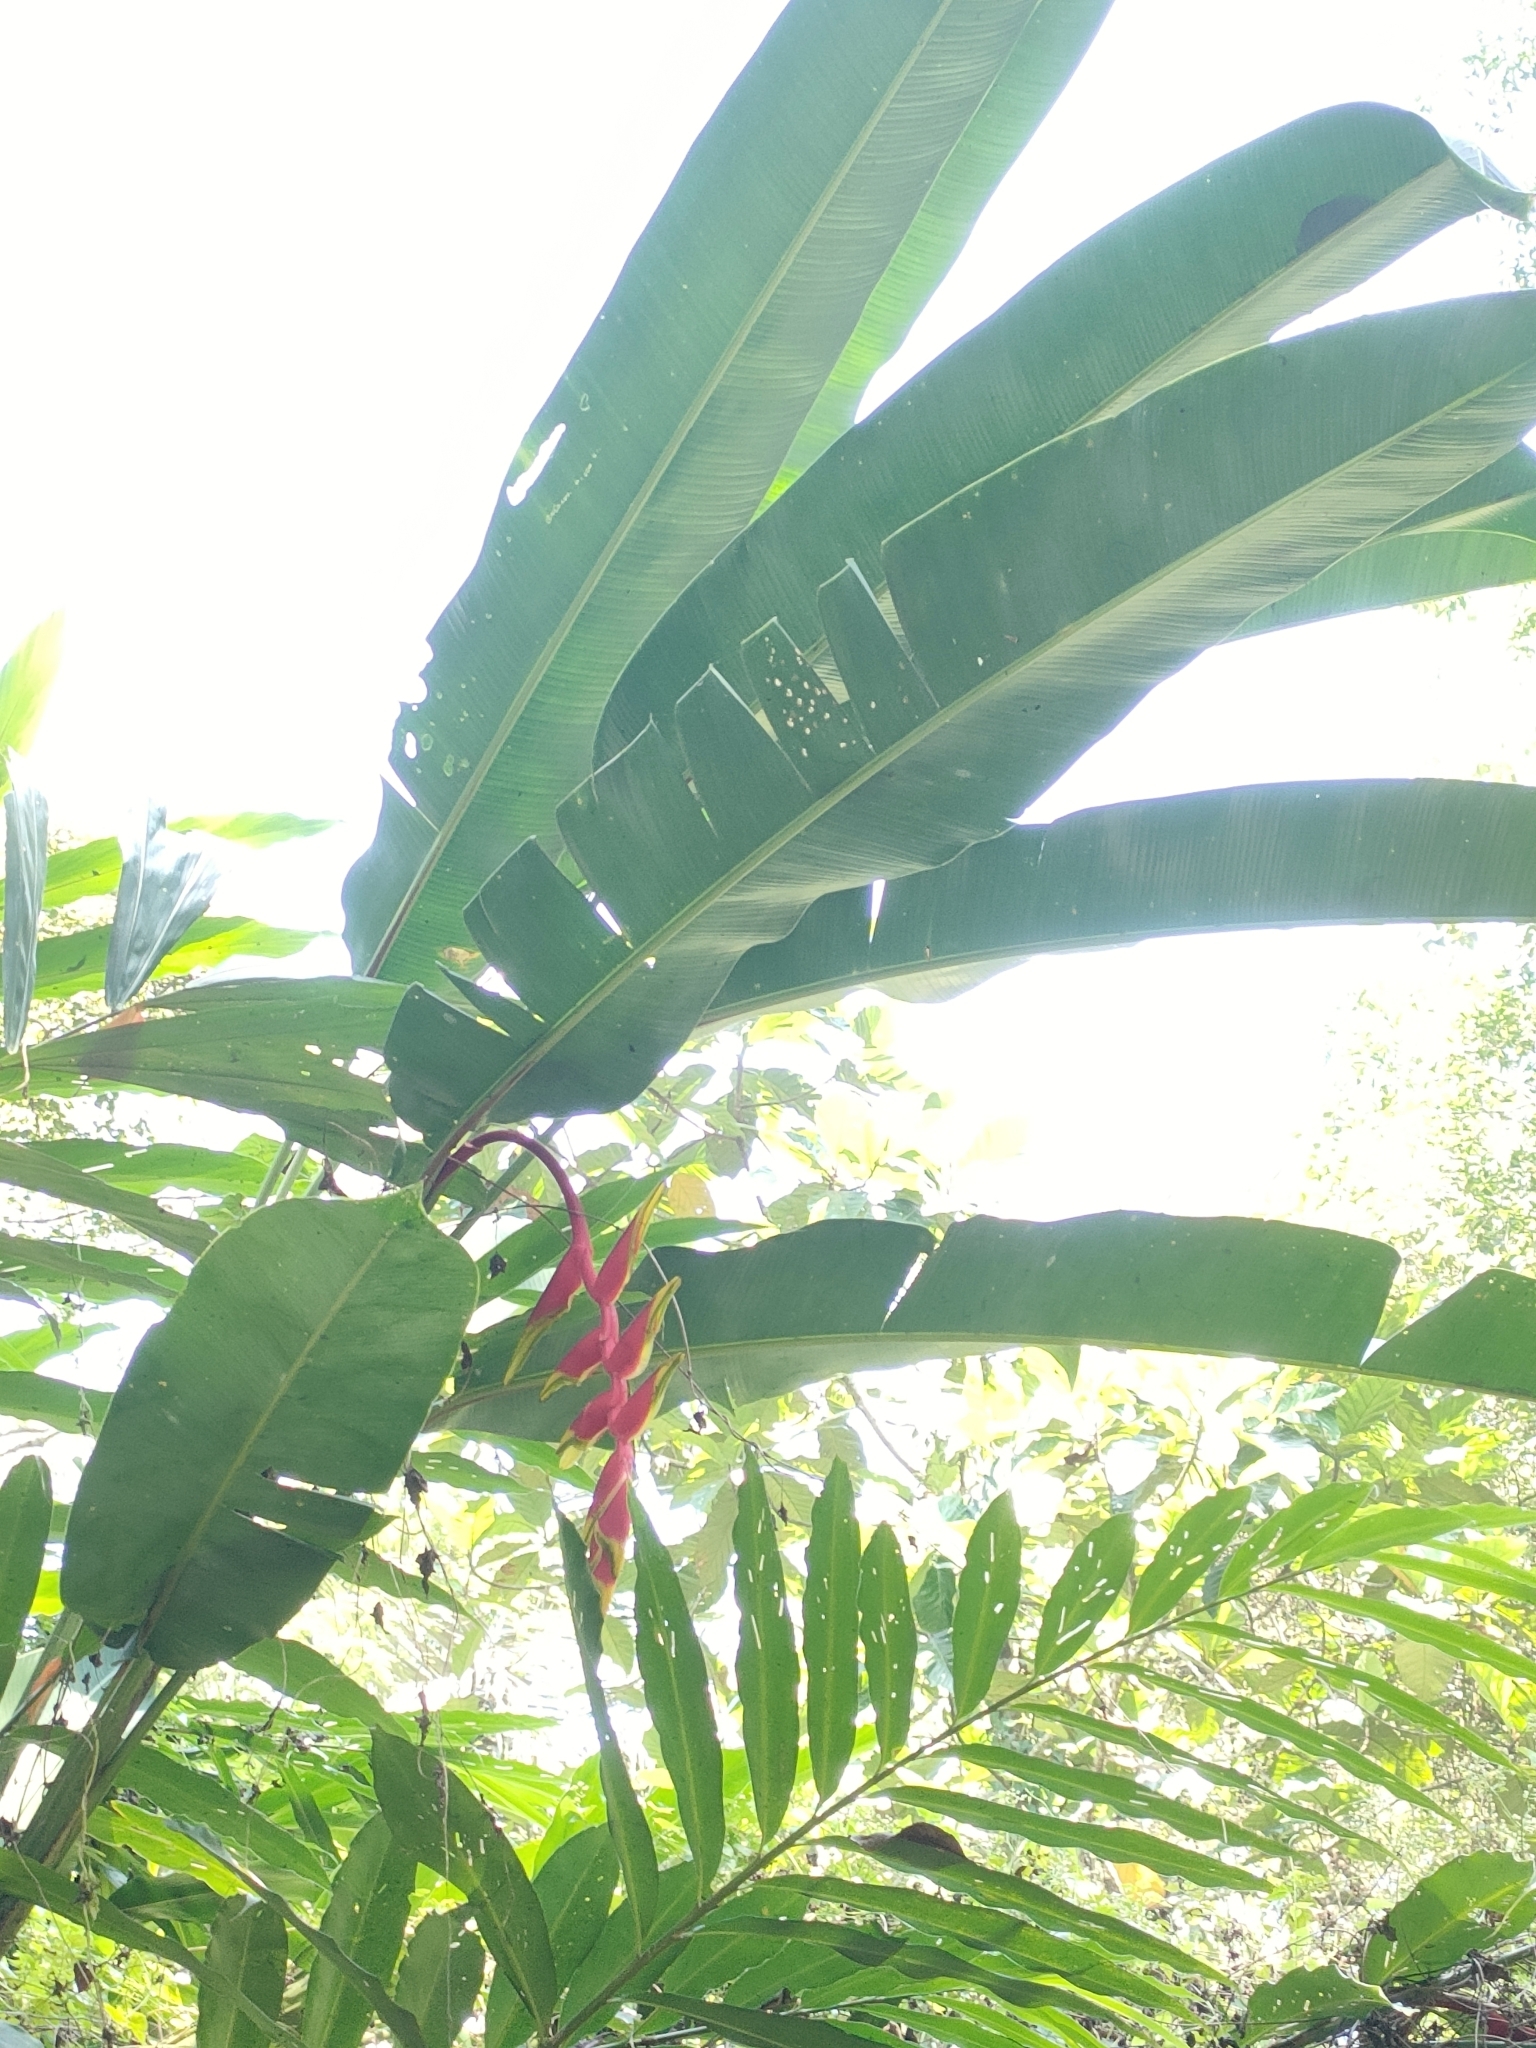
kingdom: Plantae
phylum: Tracheophyta
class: Liliopsida
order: Zingiberales
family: Heliconiaceae
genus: Heliconia
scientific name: Heliconia rostrata
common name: False bird of paradise
